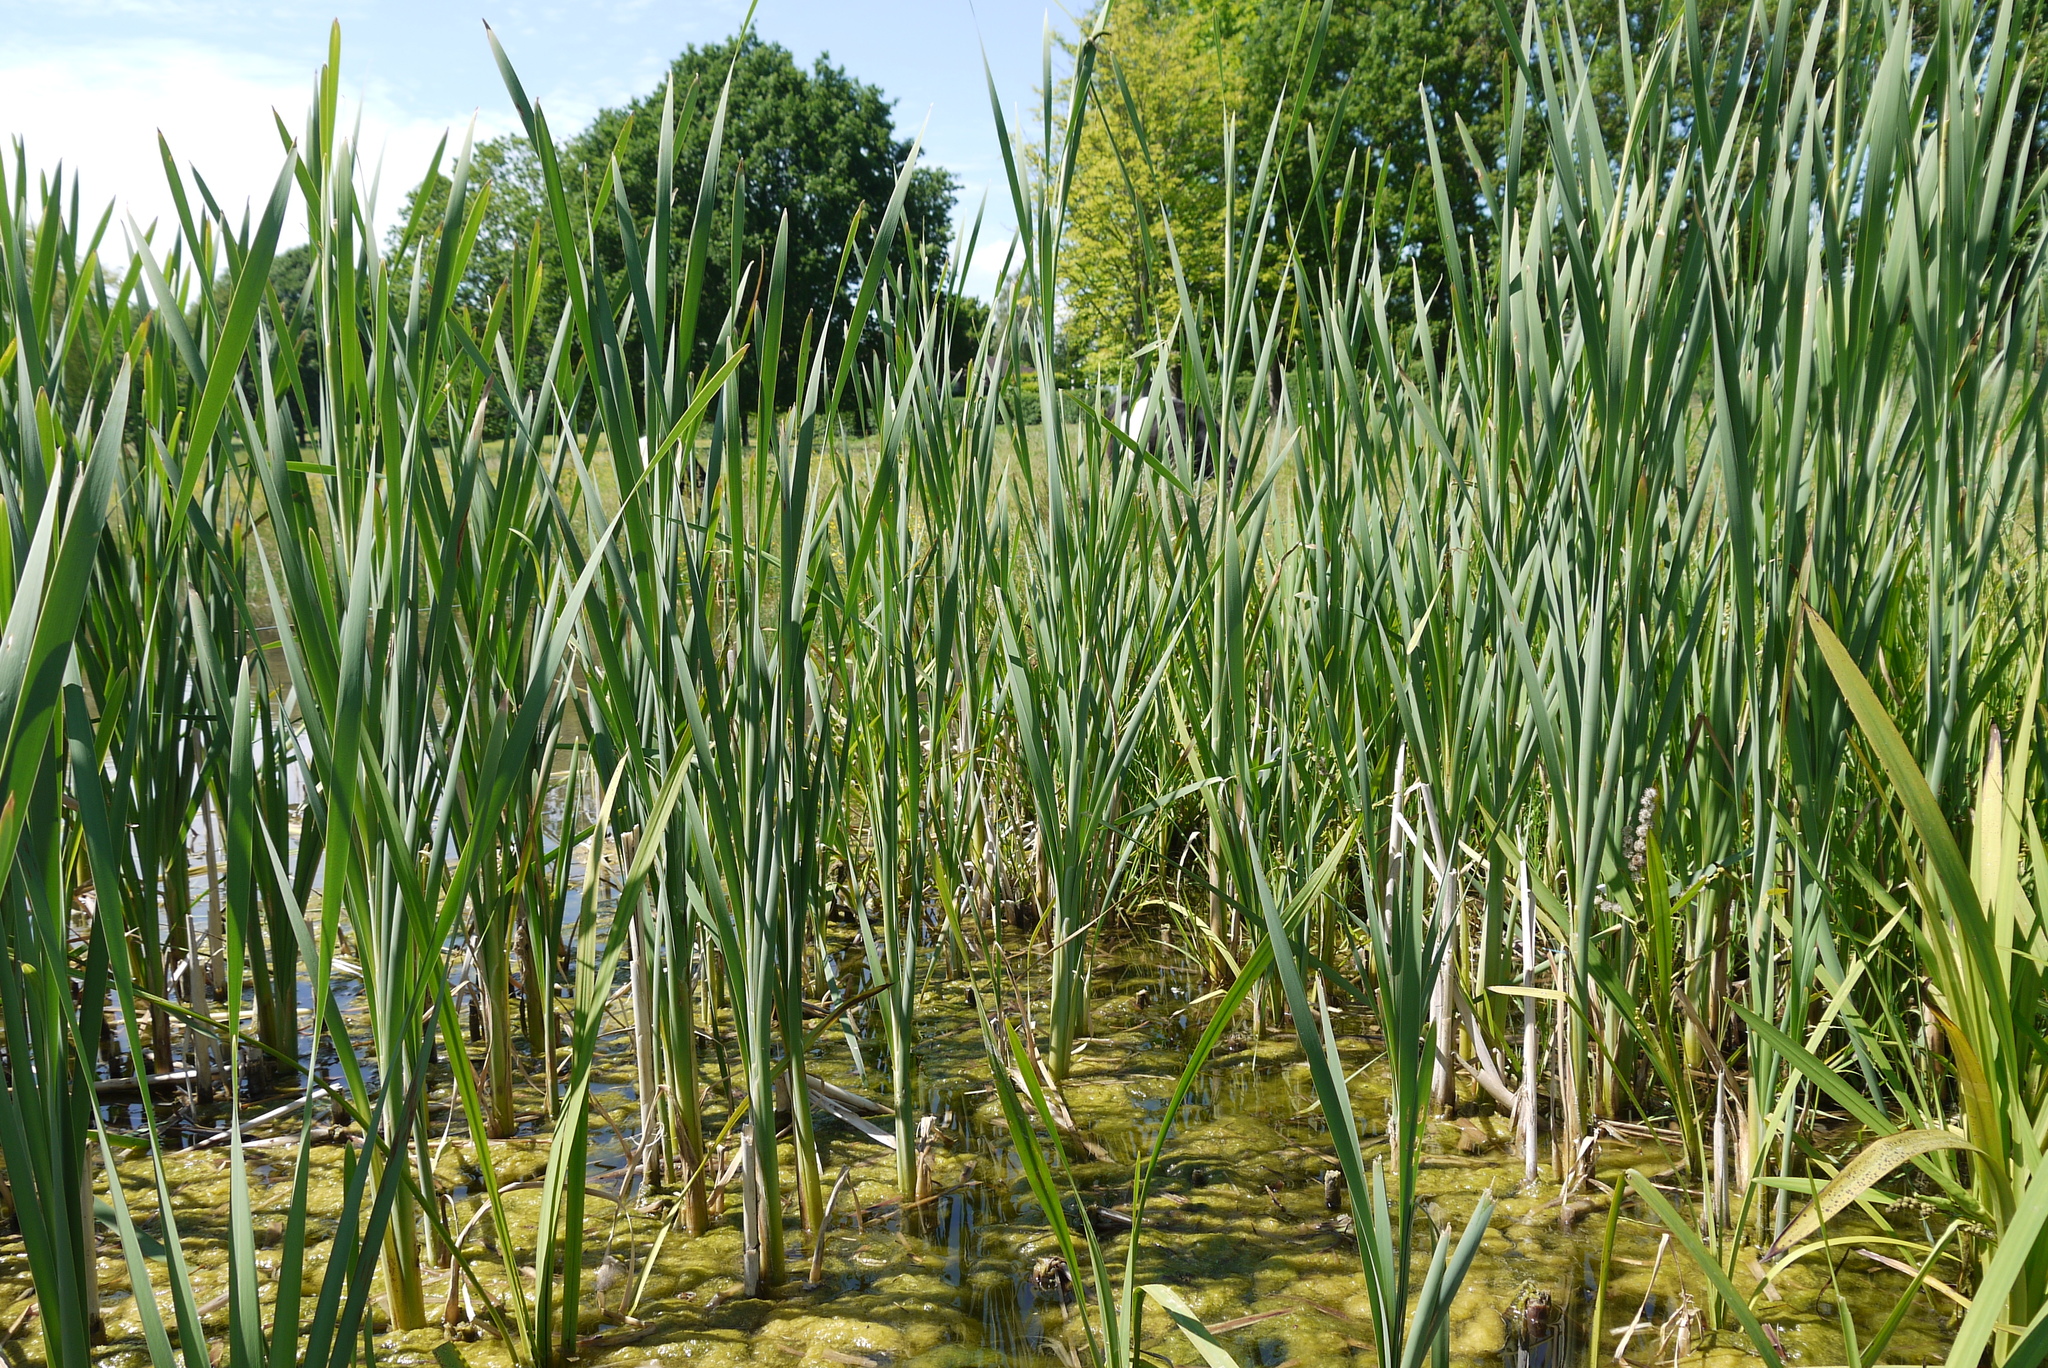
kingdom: Plantae
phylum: Tracheophyta
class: Liliopsida
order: Poales
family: Typhaceae
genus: Typha
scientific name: Typha latifolia
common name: Broadleaf cattail
